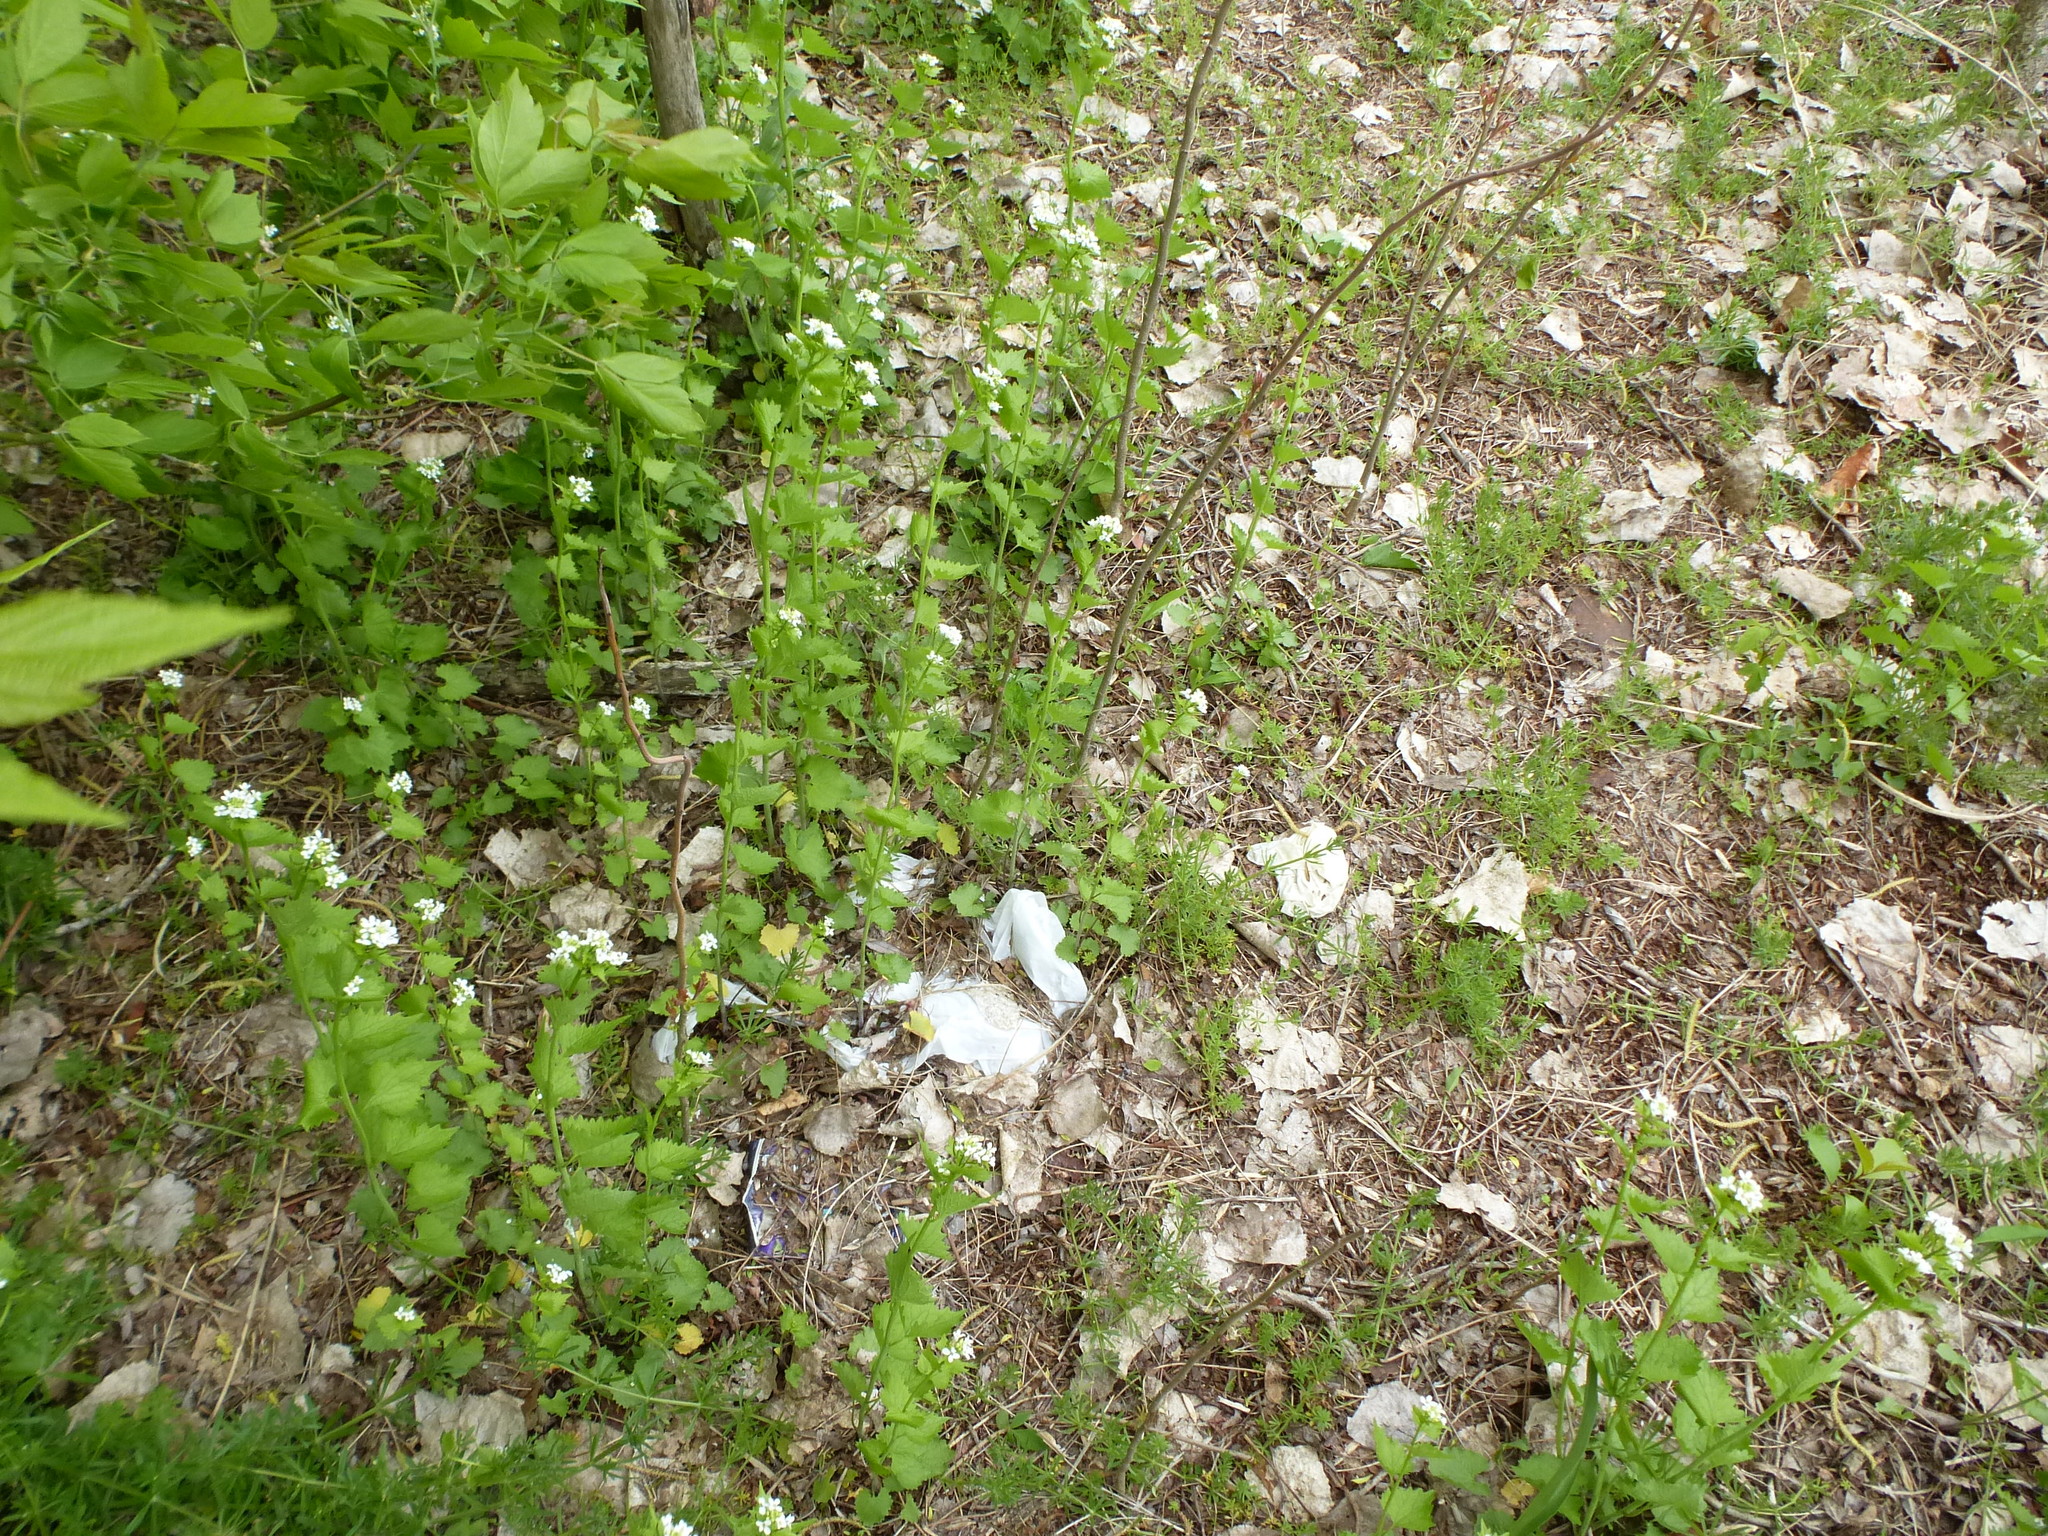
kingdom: Plantae
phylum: Tracheophyta
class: Magnoliopsida
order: Brassicales
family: Brassicaceae
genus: Alliaria
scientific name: Alliaria petiolata
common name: Garlic mustard
